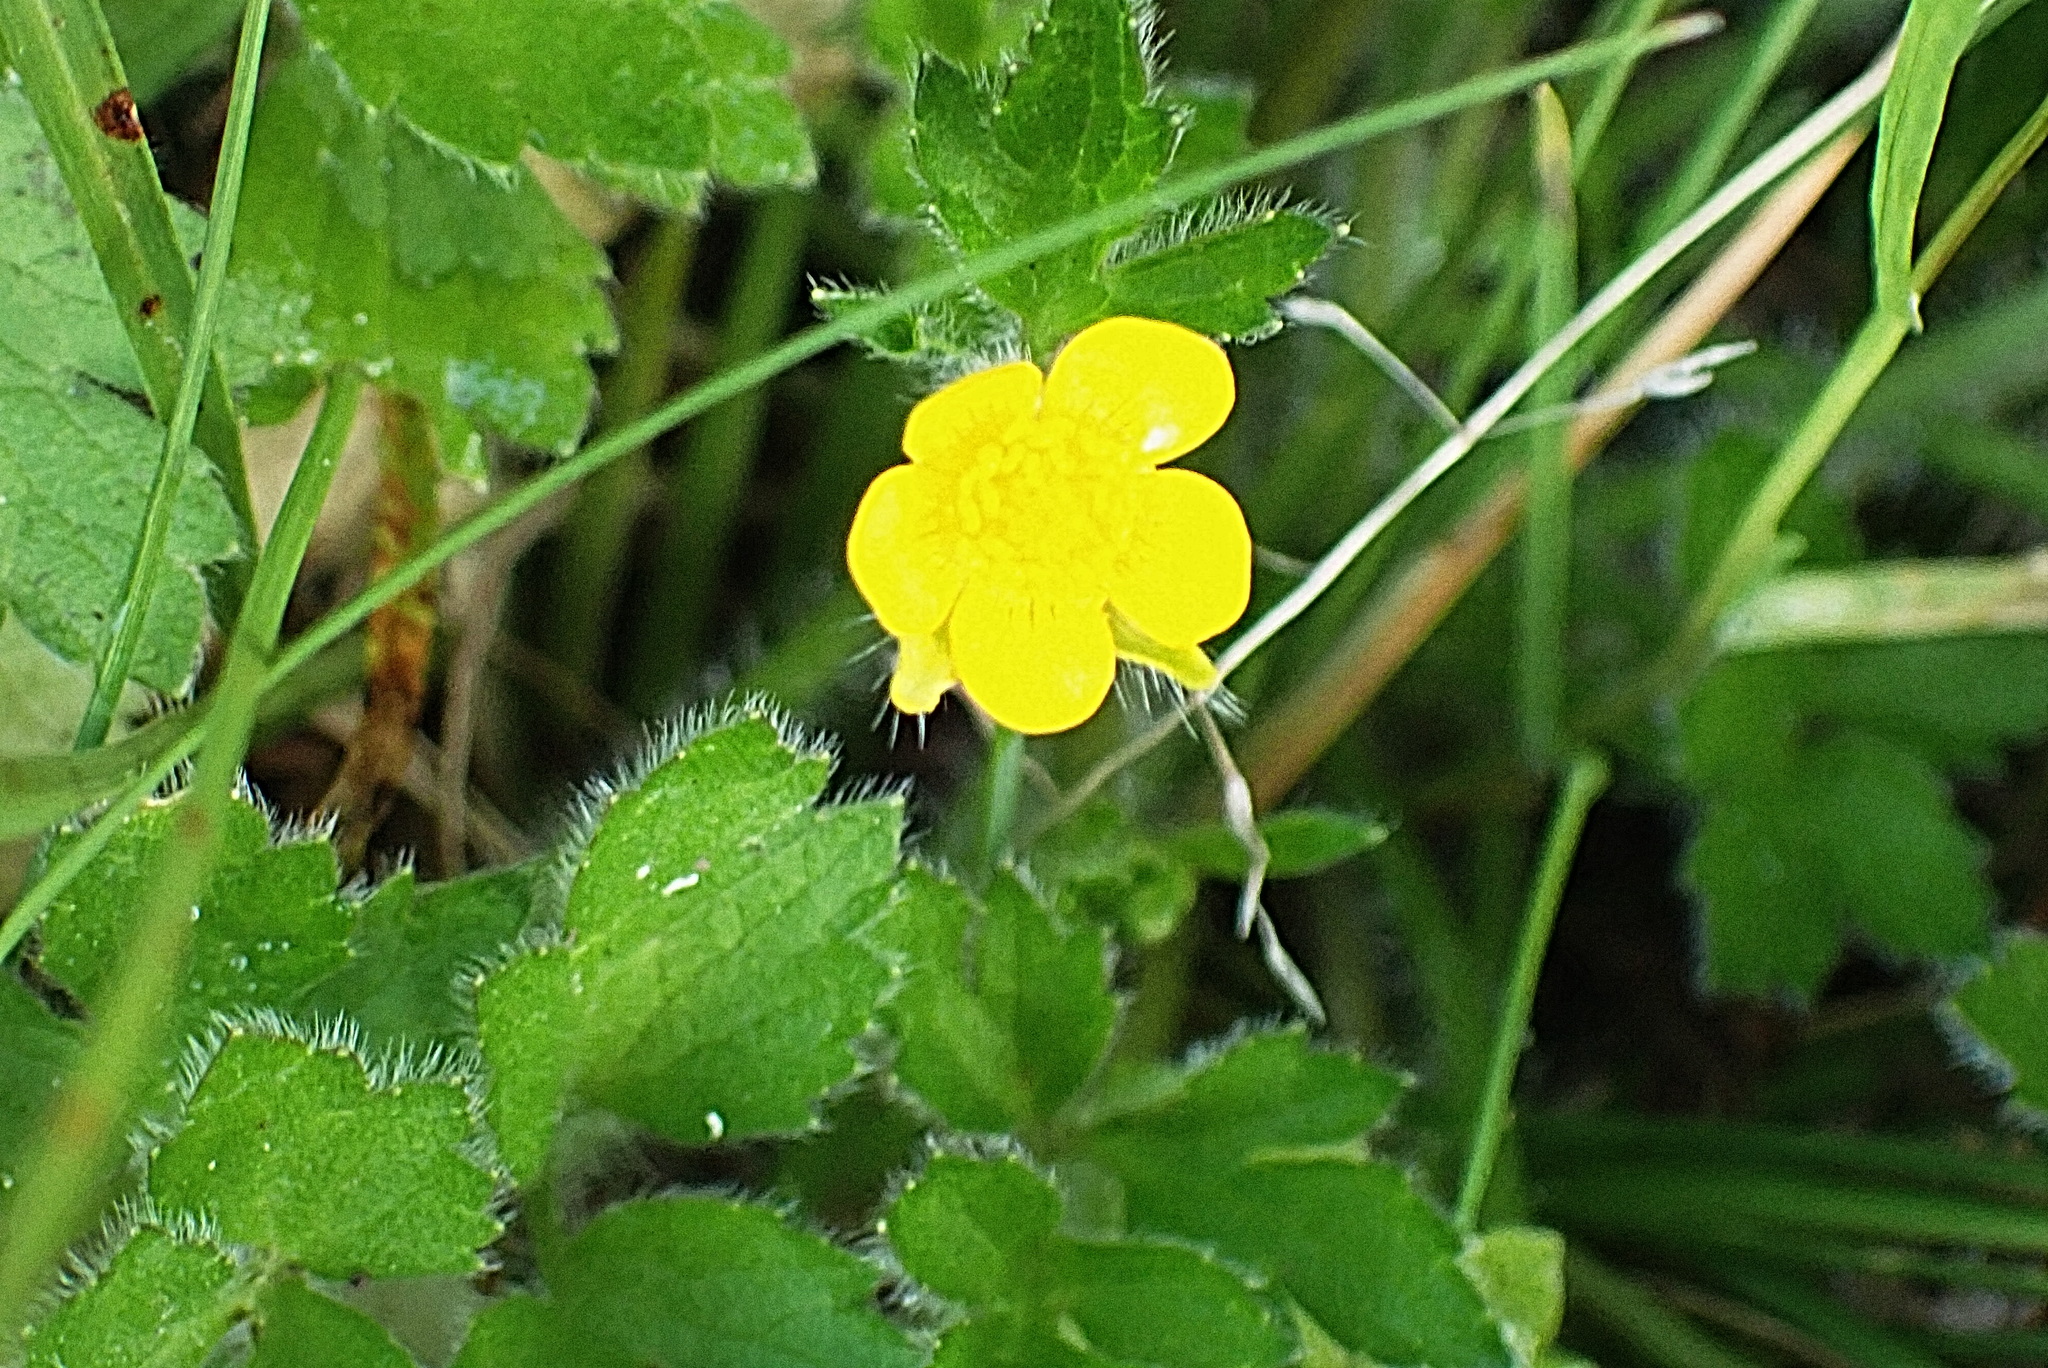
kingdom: Plantae
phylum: Tracheophyta
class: Magnoliopsida
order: Ranunculales
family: Ranunculaceae
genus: Ranunculus
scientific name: Ranunculus multifidus
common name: Wild buttercup
